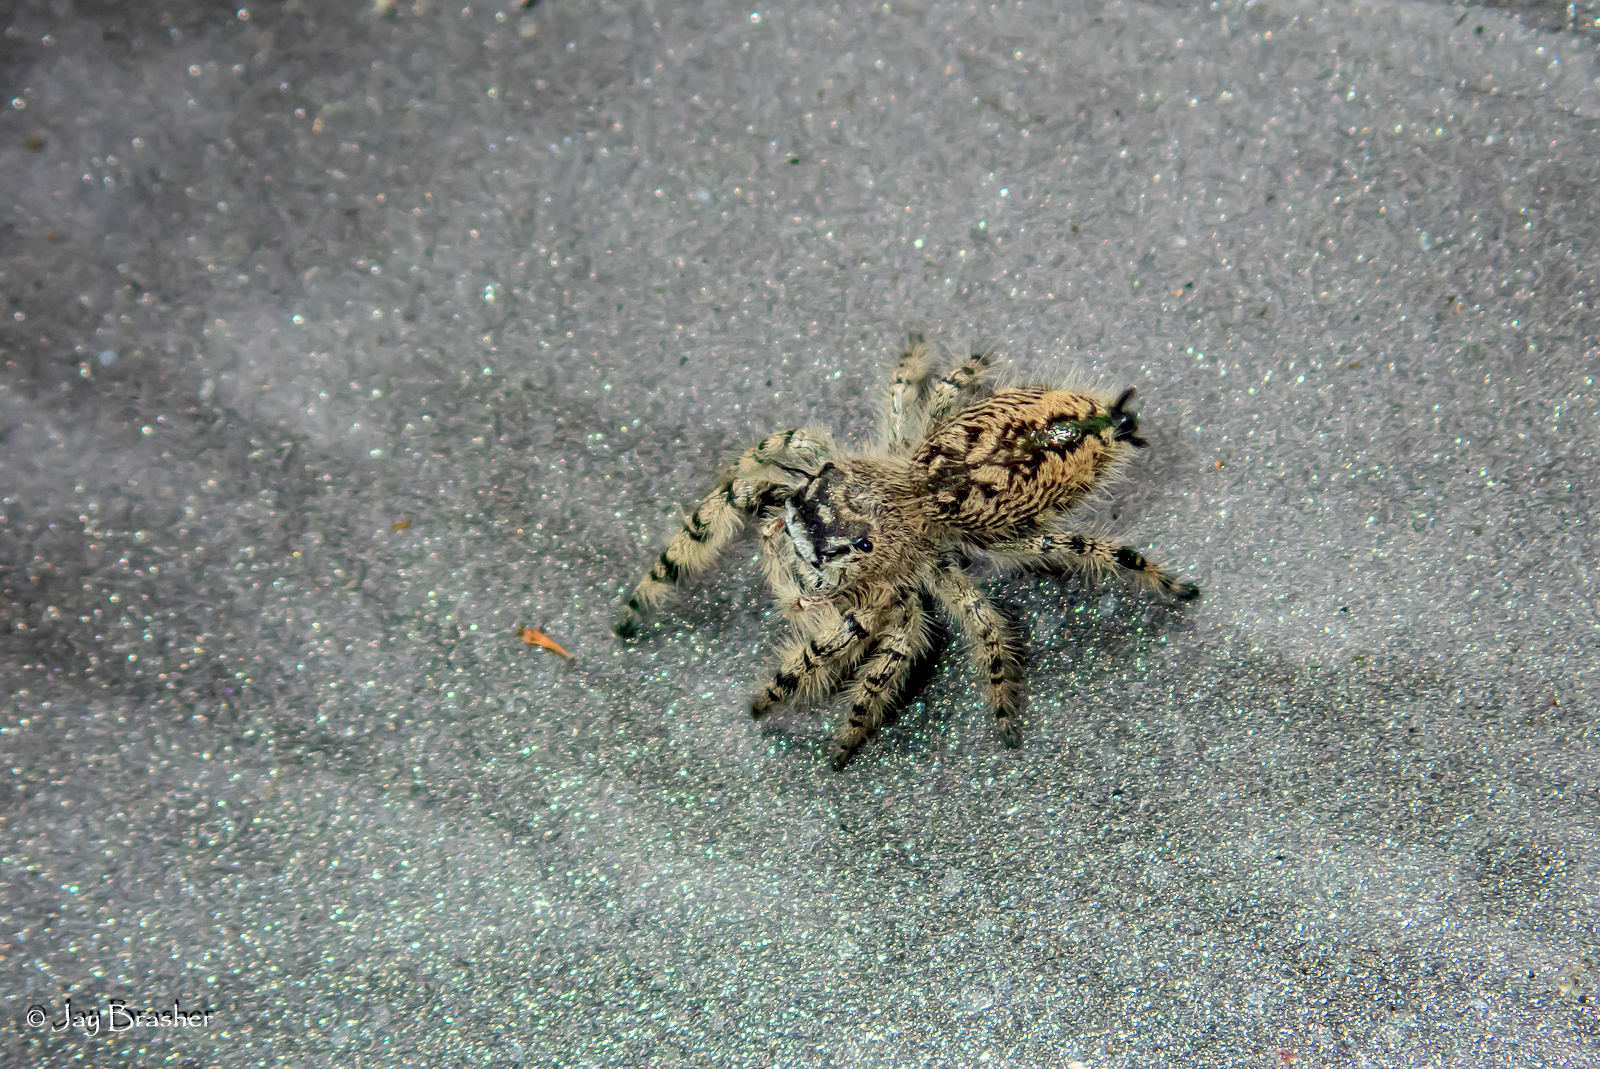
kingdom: Animalia
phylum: Arthropoda
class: Arachnida
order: Araneae
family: Salticidae
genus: Phidippus
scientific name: Phidippus otiosus
